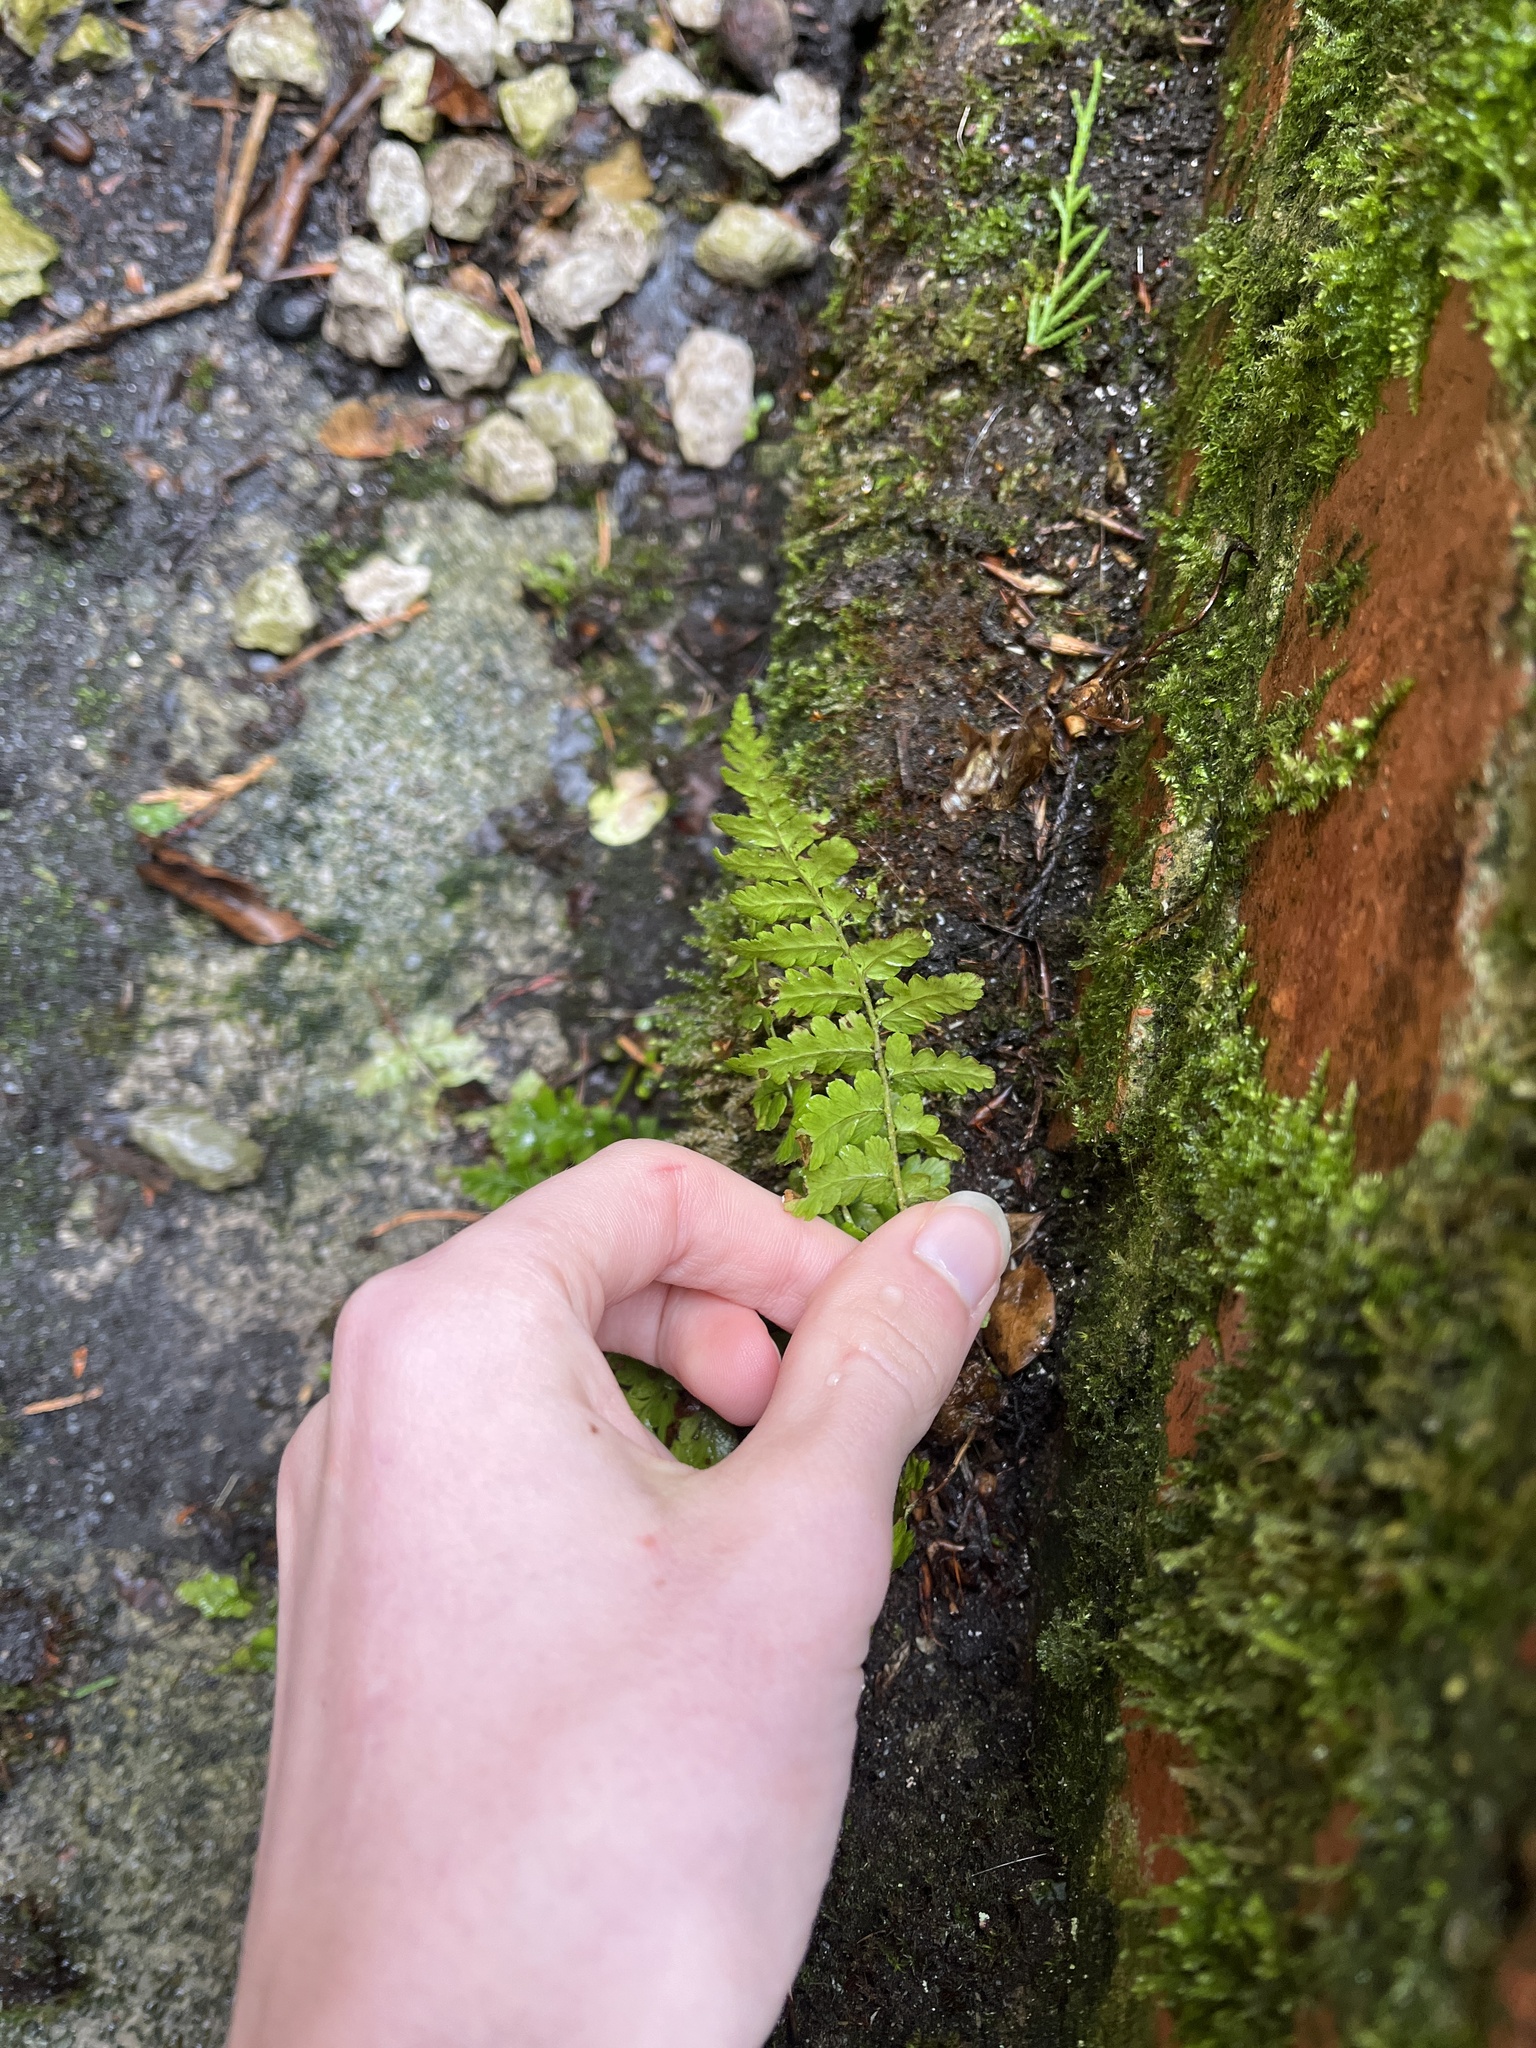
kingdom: Plantae
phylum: Tracheophyta
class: Polypodiopsida
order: Polypodiales
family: Dryopteridaceae
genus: Dryopteris
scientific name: Dryopteris dilatata
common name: Broad buckler-fern
